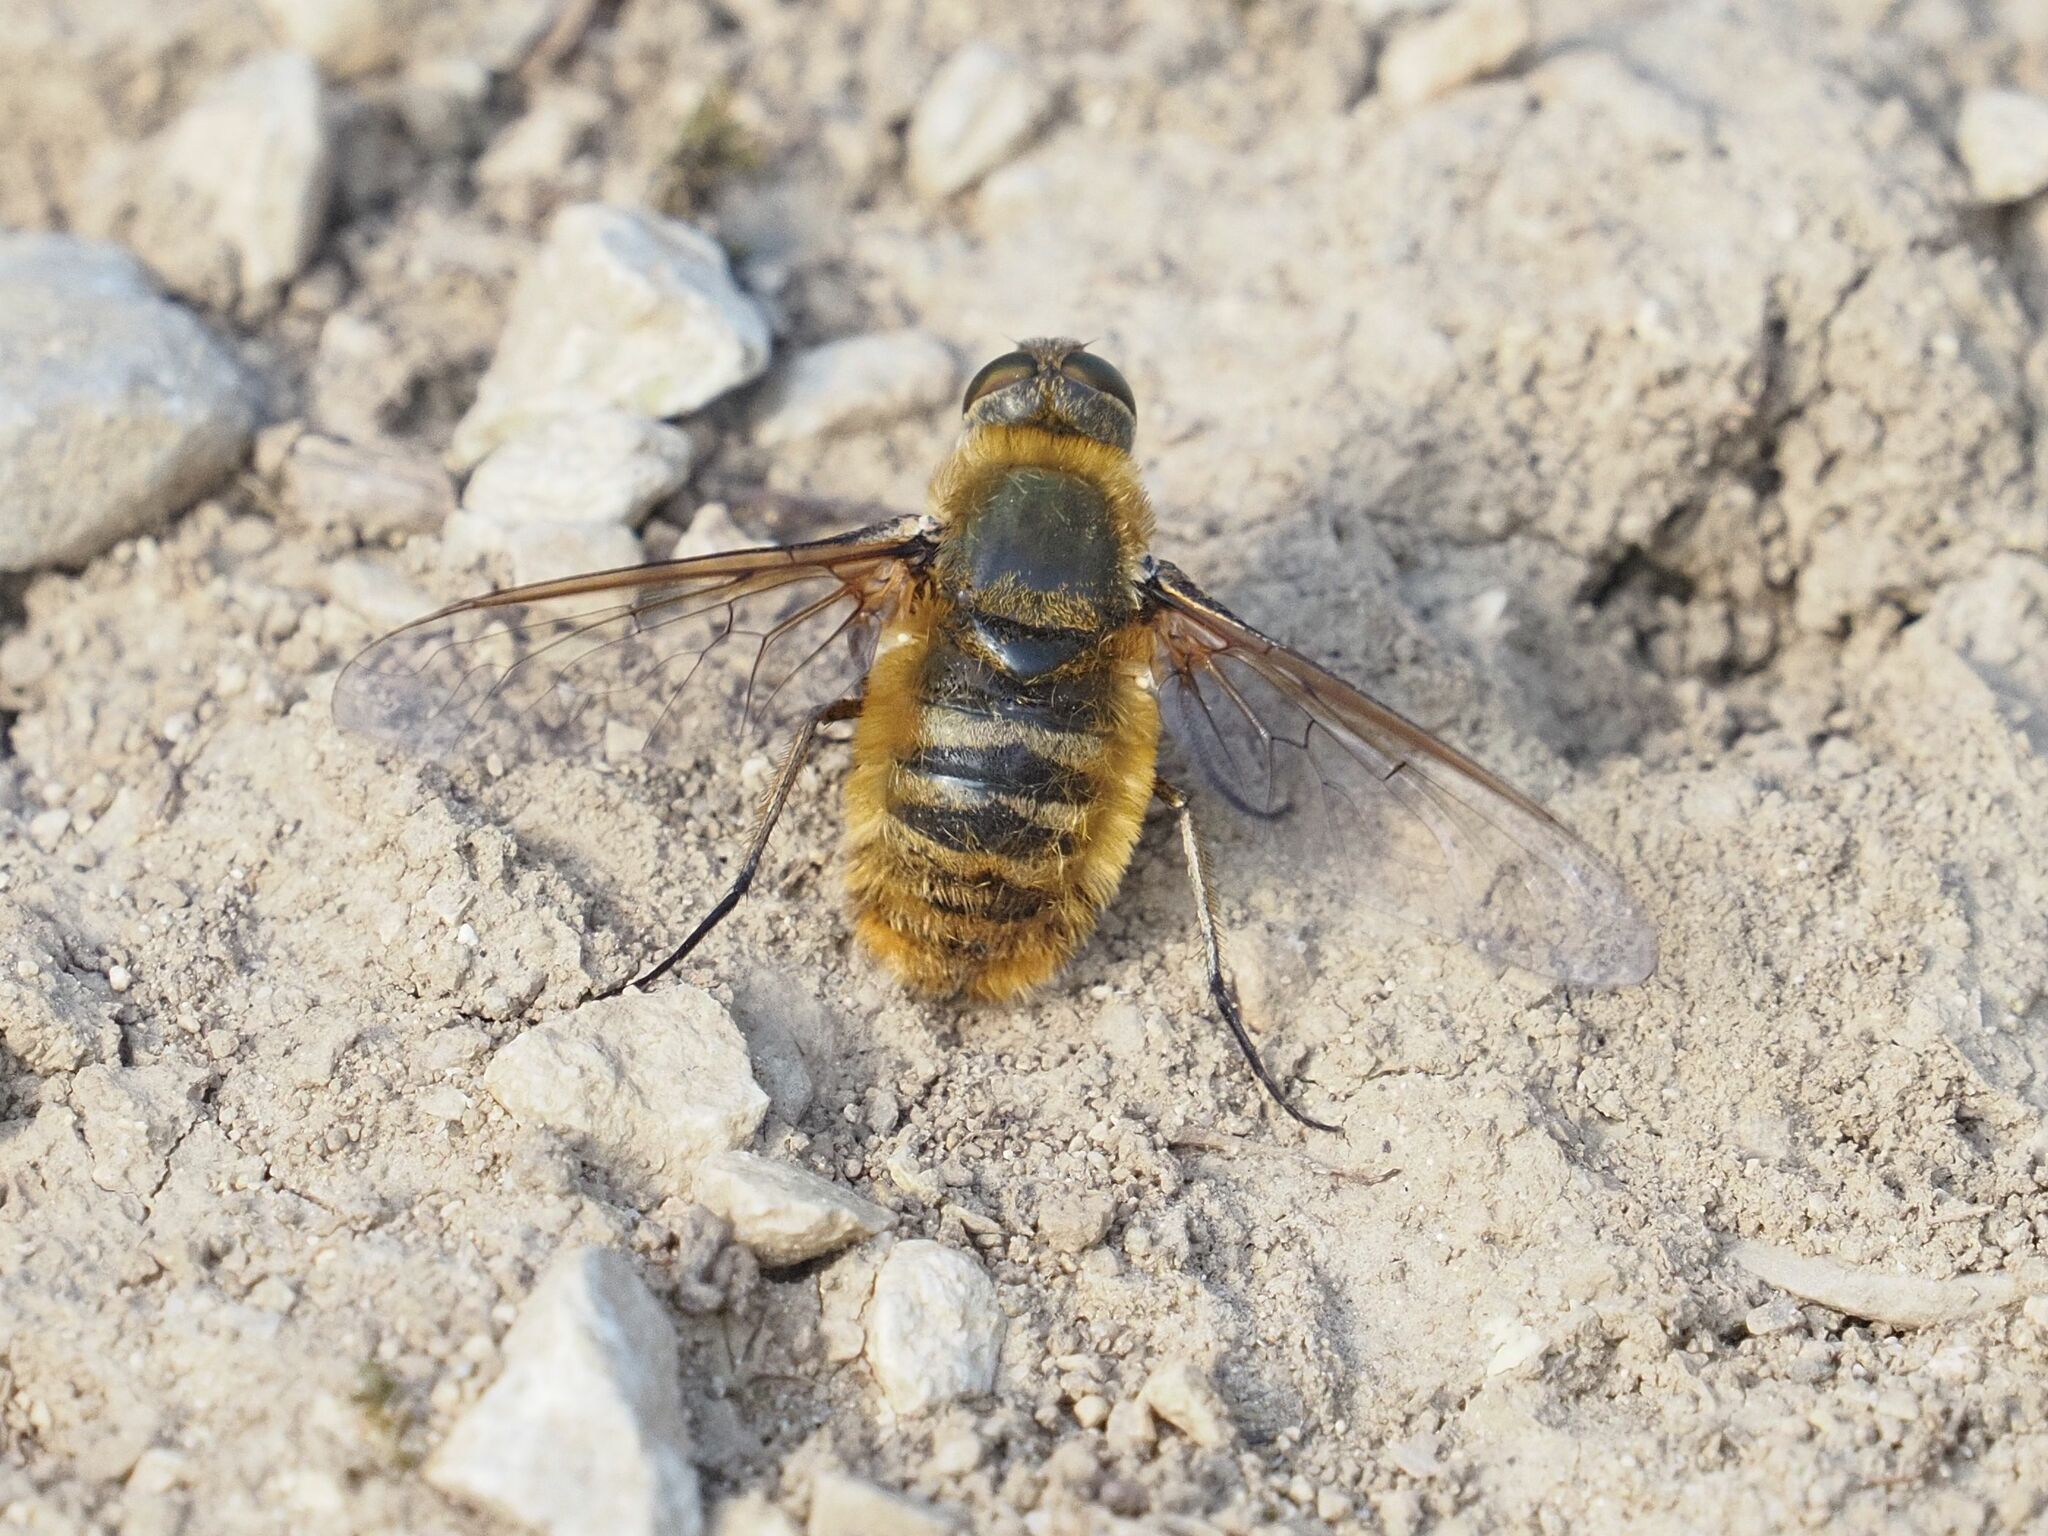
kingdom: Animalia
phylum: Arthropoda
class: Insecta
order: Diptera
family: Bombyliidae
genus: Villa
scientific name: Villa hottentotta
